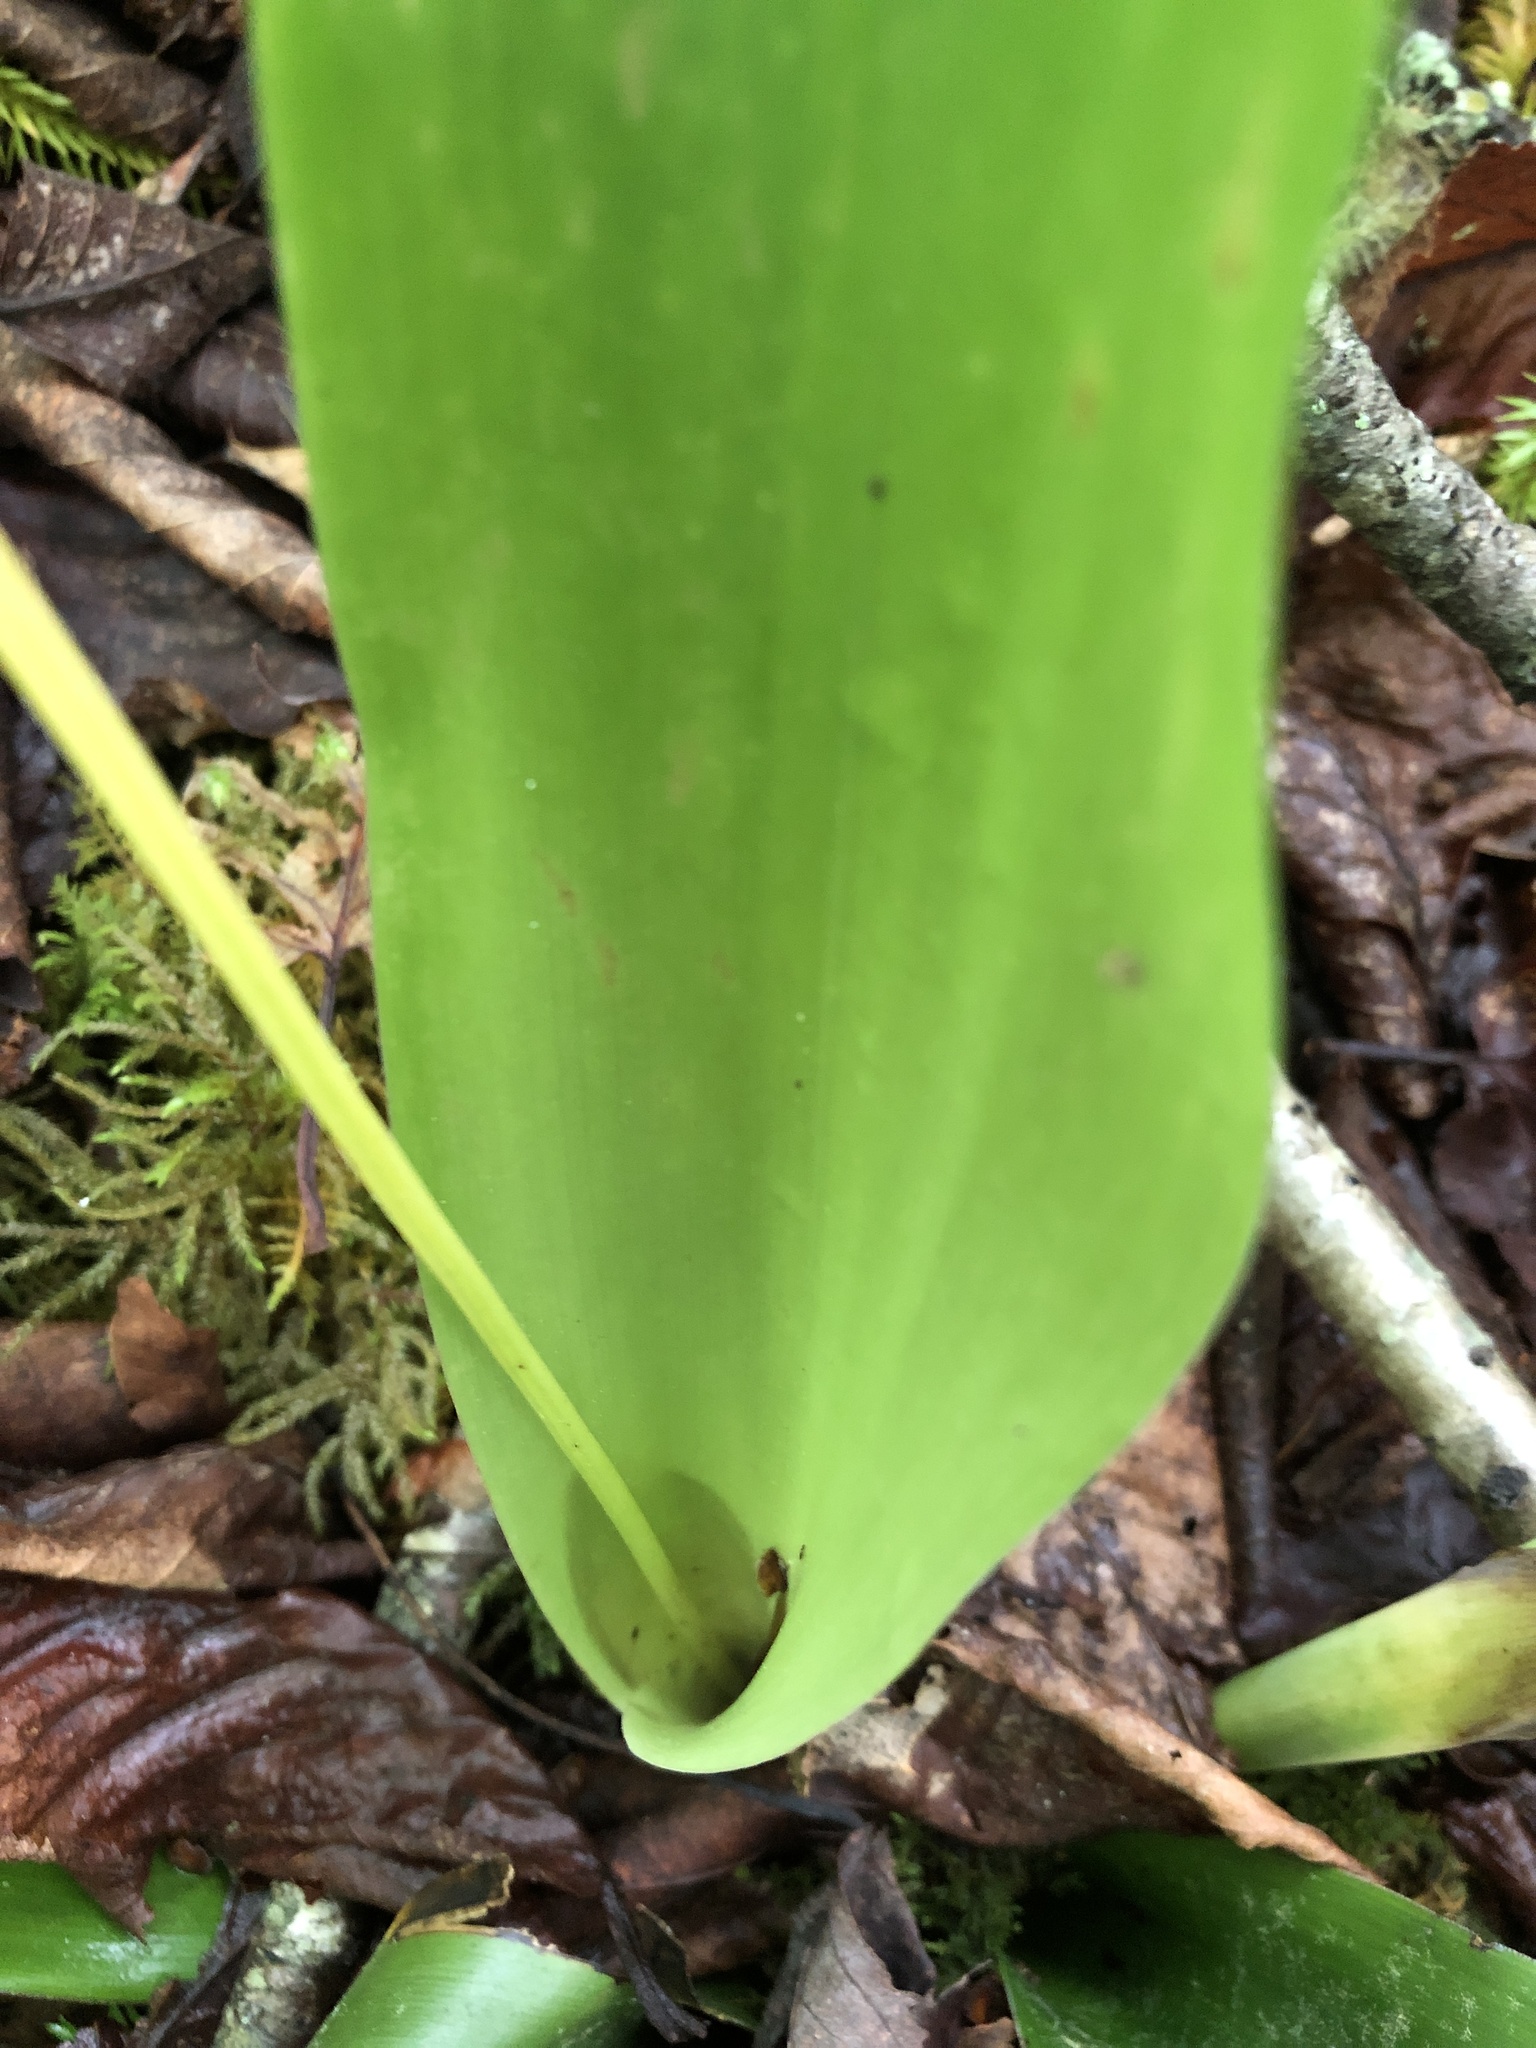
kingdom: Plantae
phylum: Tracheophyta
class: Liliopsida
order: Poales
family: Cyperaceae
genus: Carex
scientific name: Carex fraseriana
